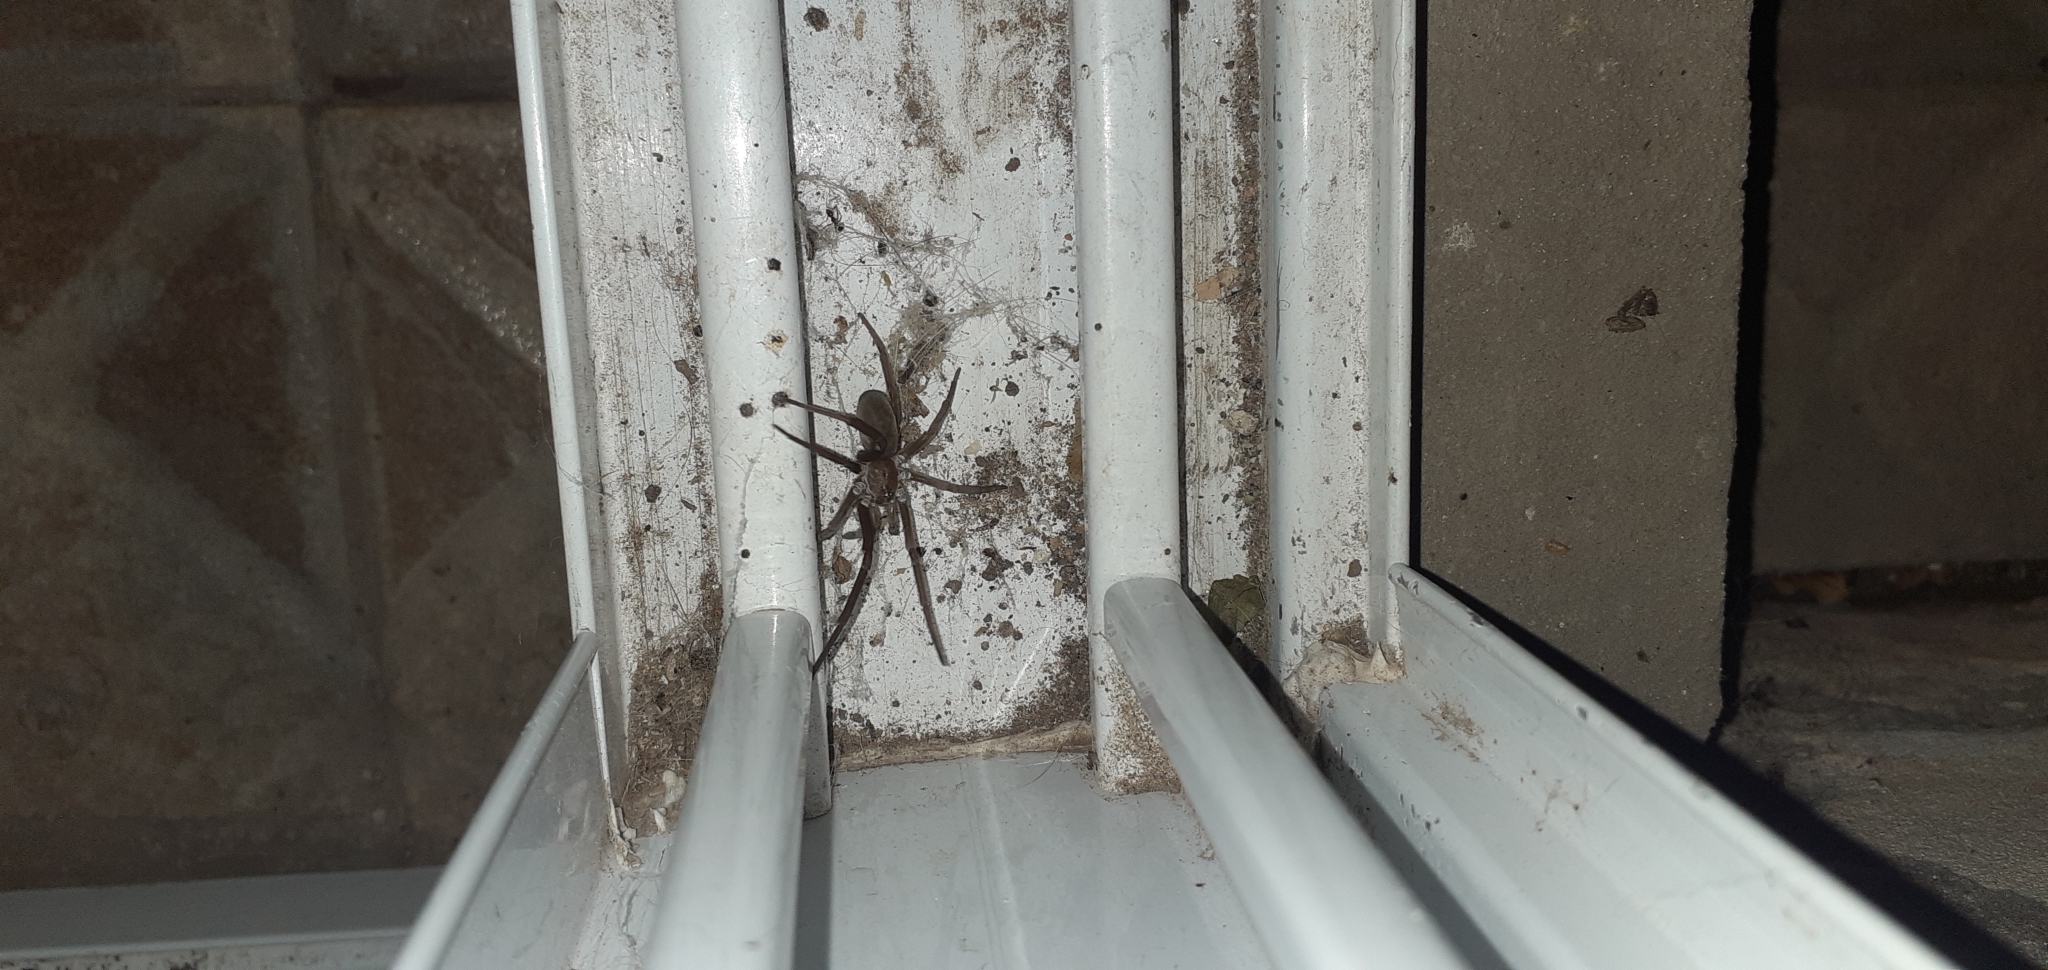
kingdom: Animalia
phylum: Arthropoda
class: Arachnida
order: Araneae
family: Filistatidae
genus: Kukulcania
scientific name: Kukulcania hibernalis
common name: Crevice weaver
